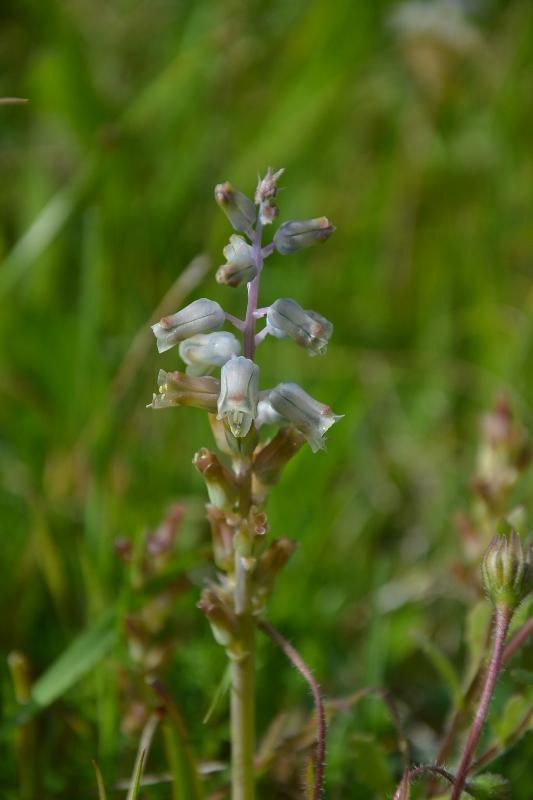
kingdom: Plantae
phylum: Tracheophyta
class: Liliopsida
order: Asparagales
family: Asparagaceae
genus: Lachenalia
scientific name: Lachenalia mediana
